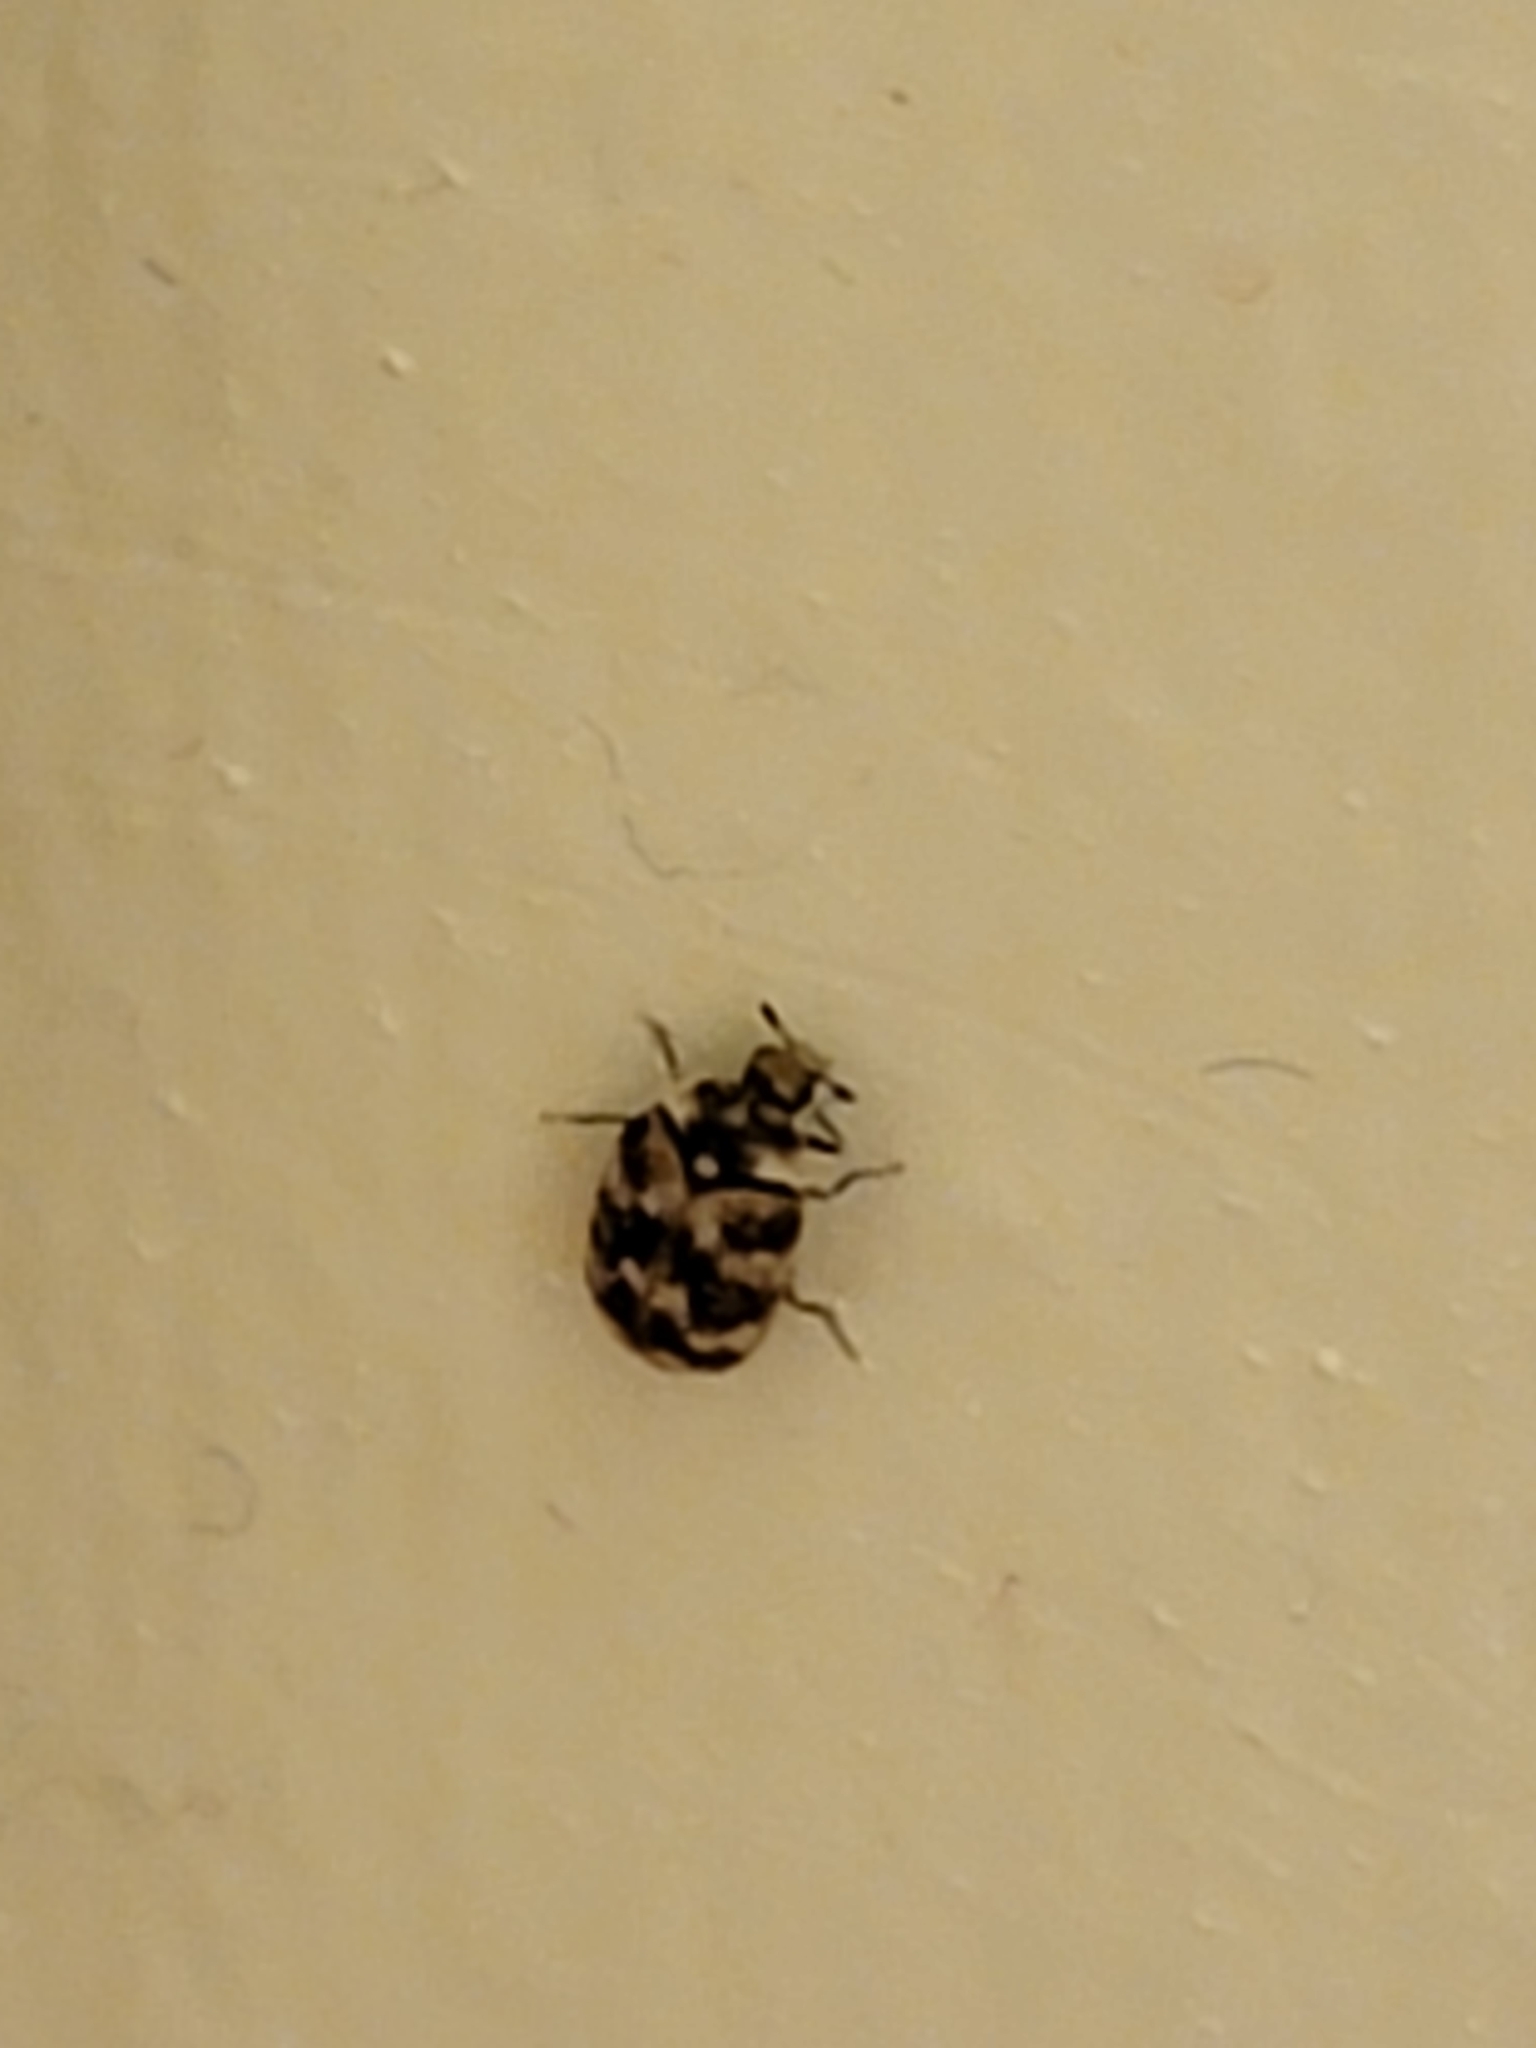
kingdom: Animalia
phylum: Arthropoda
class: Insecta
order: Coleoptera
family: Dermestidae
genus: Anthrenus
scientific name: Anthrenus verbasci
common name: Varied carpet beetle
